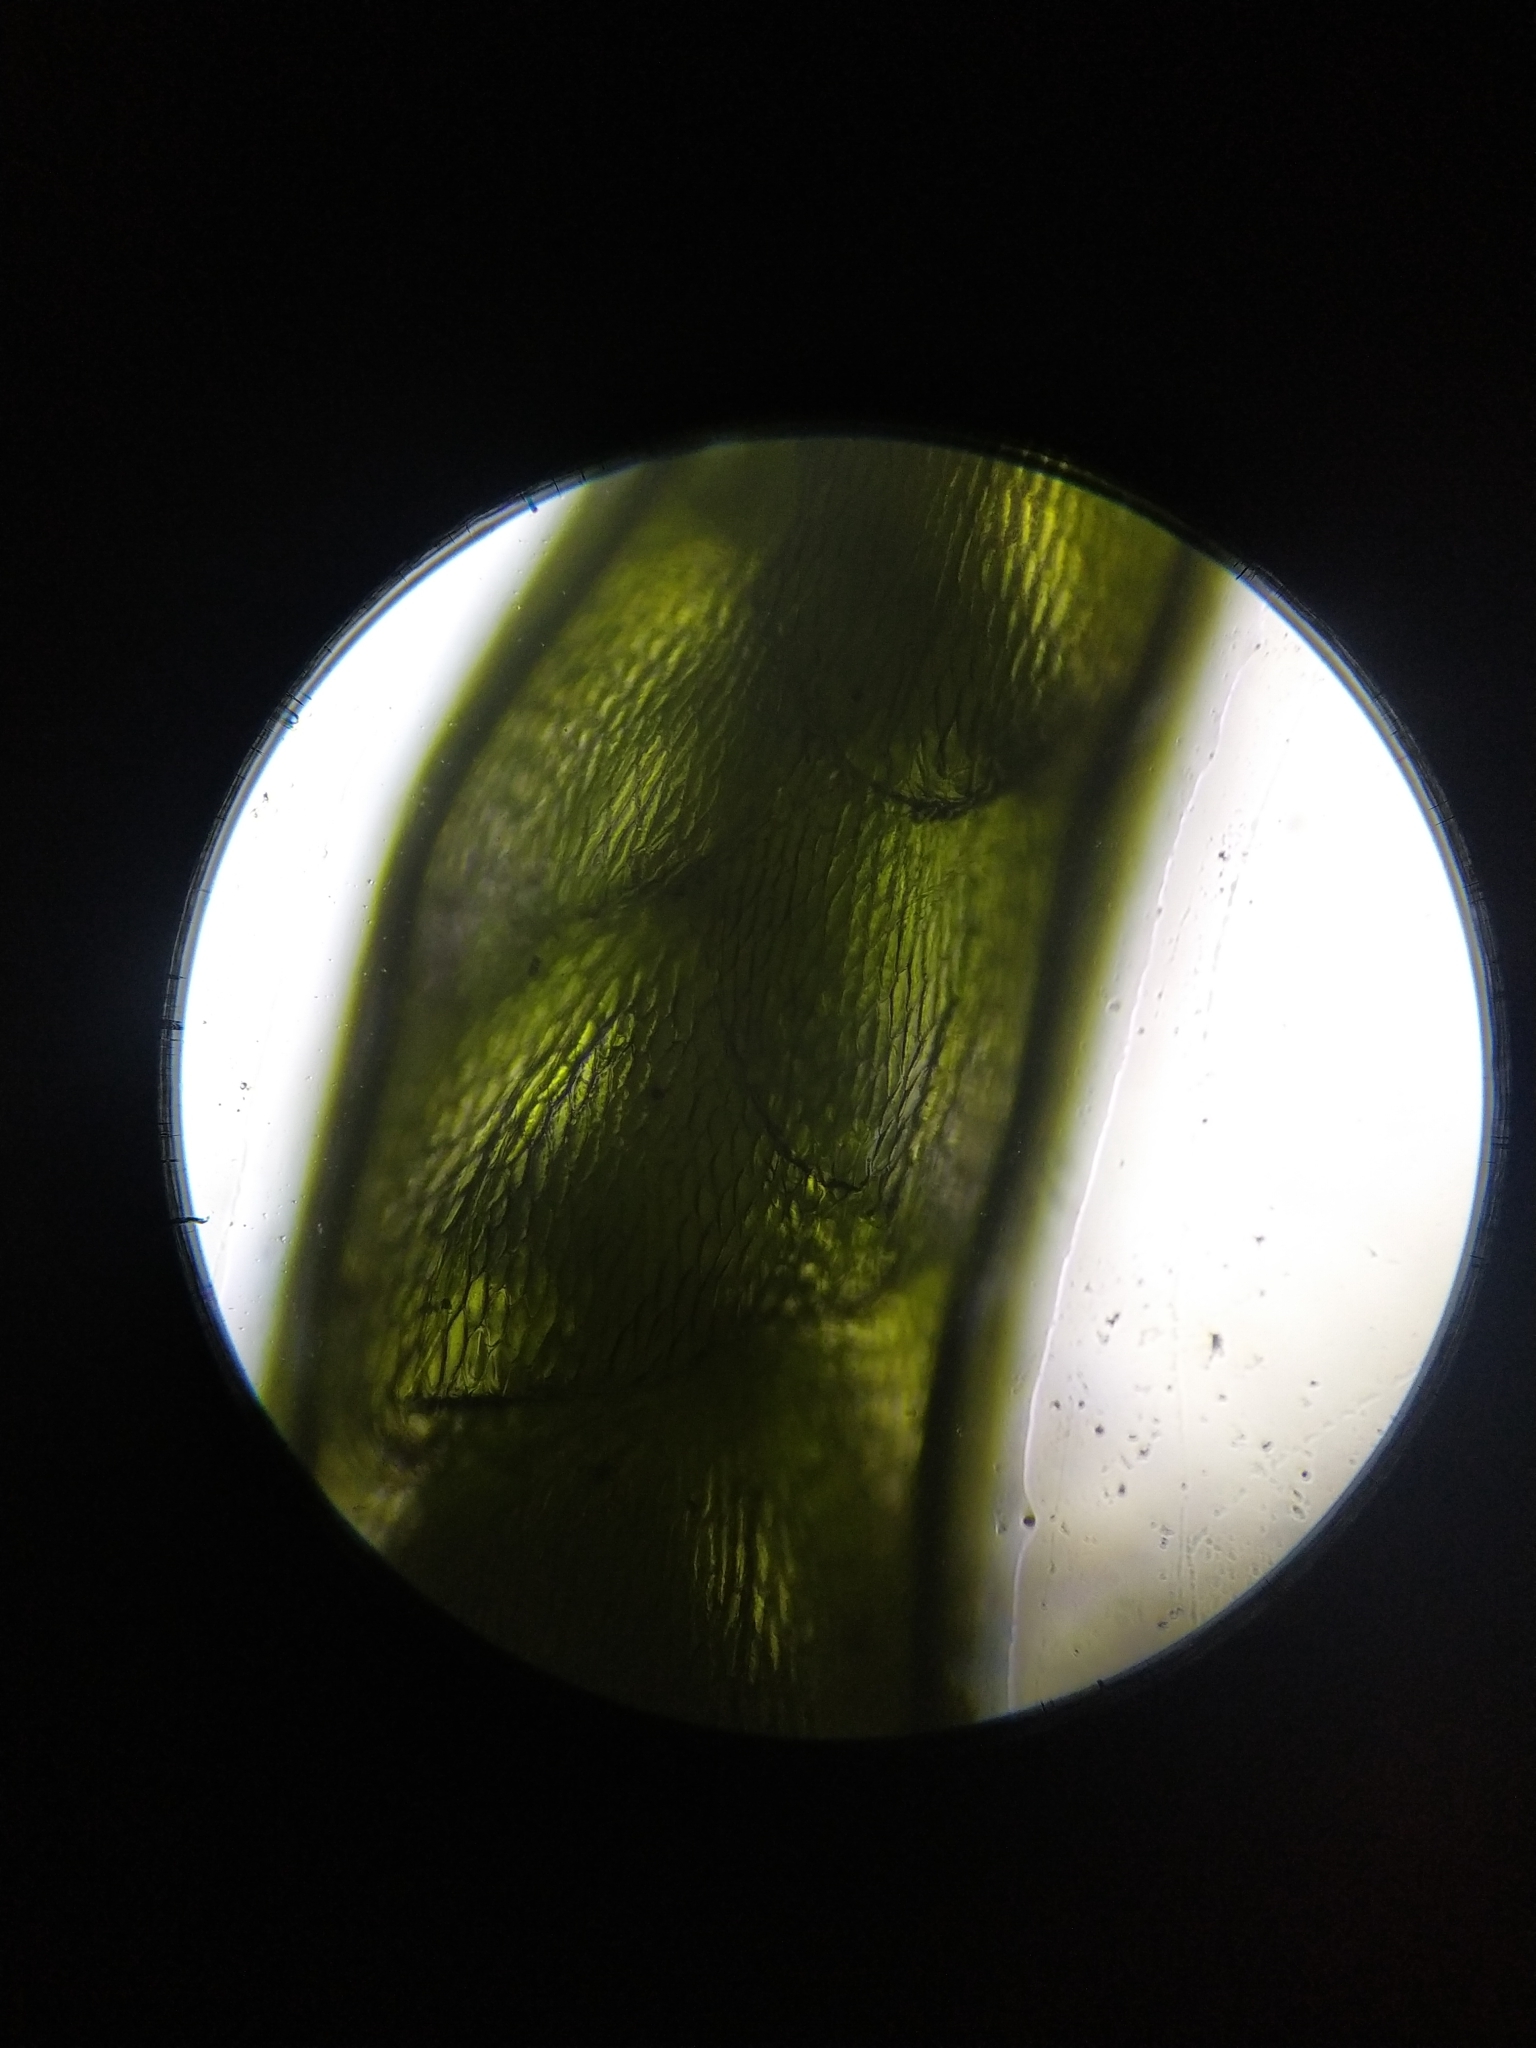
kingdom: Plantae
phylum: Bryophyta
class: Bryopsida
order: Bryales
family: Bryaceae
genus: Bryum
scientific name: Bryum argenteum
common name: Silver-moss
